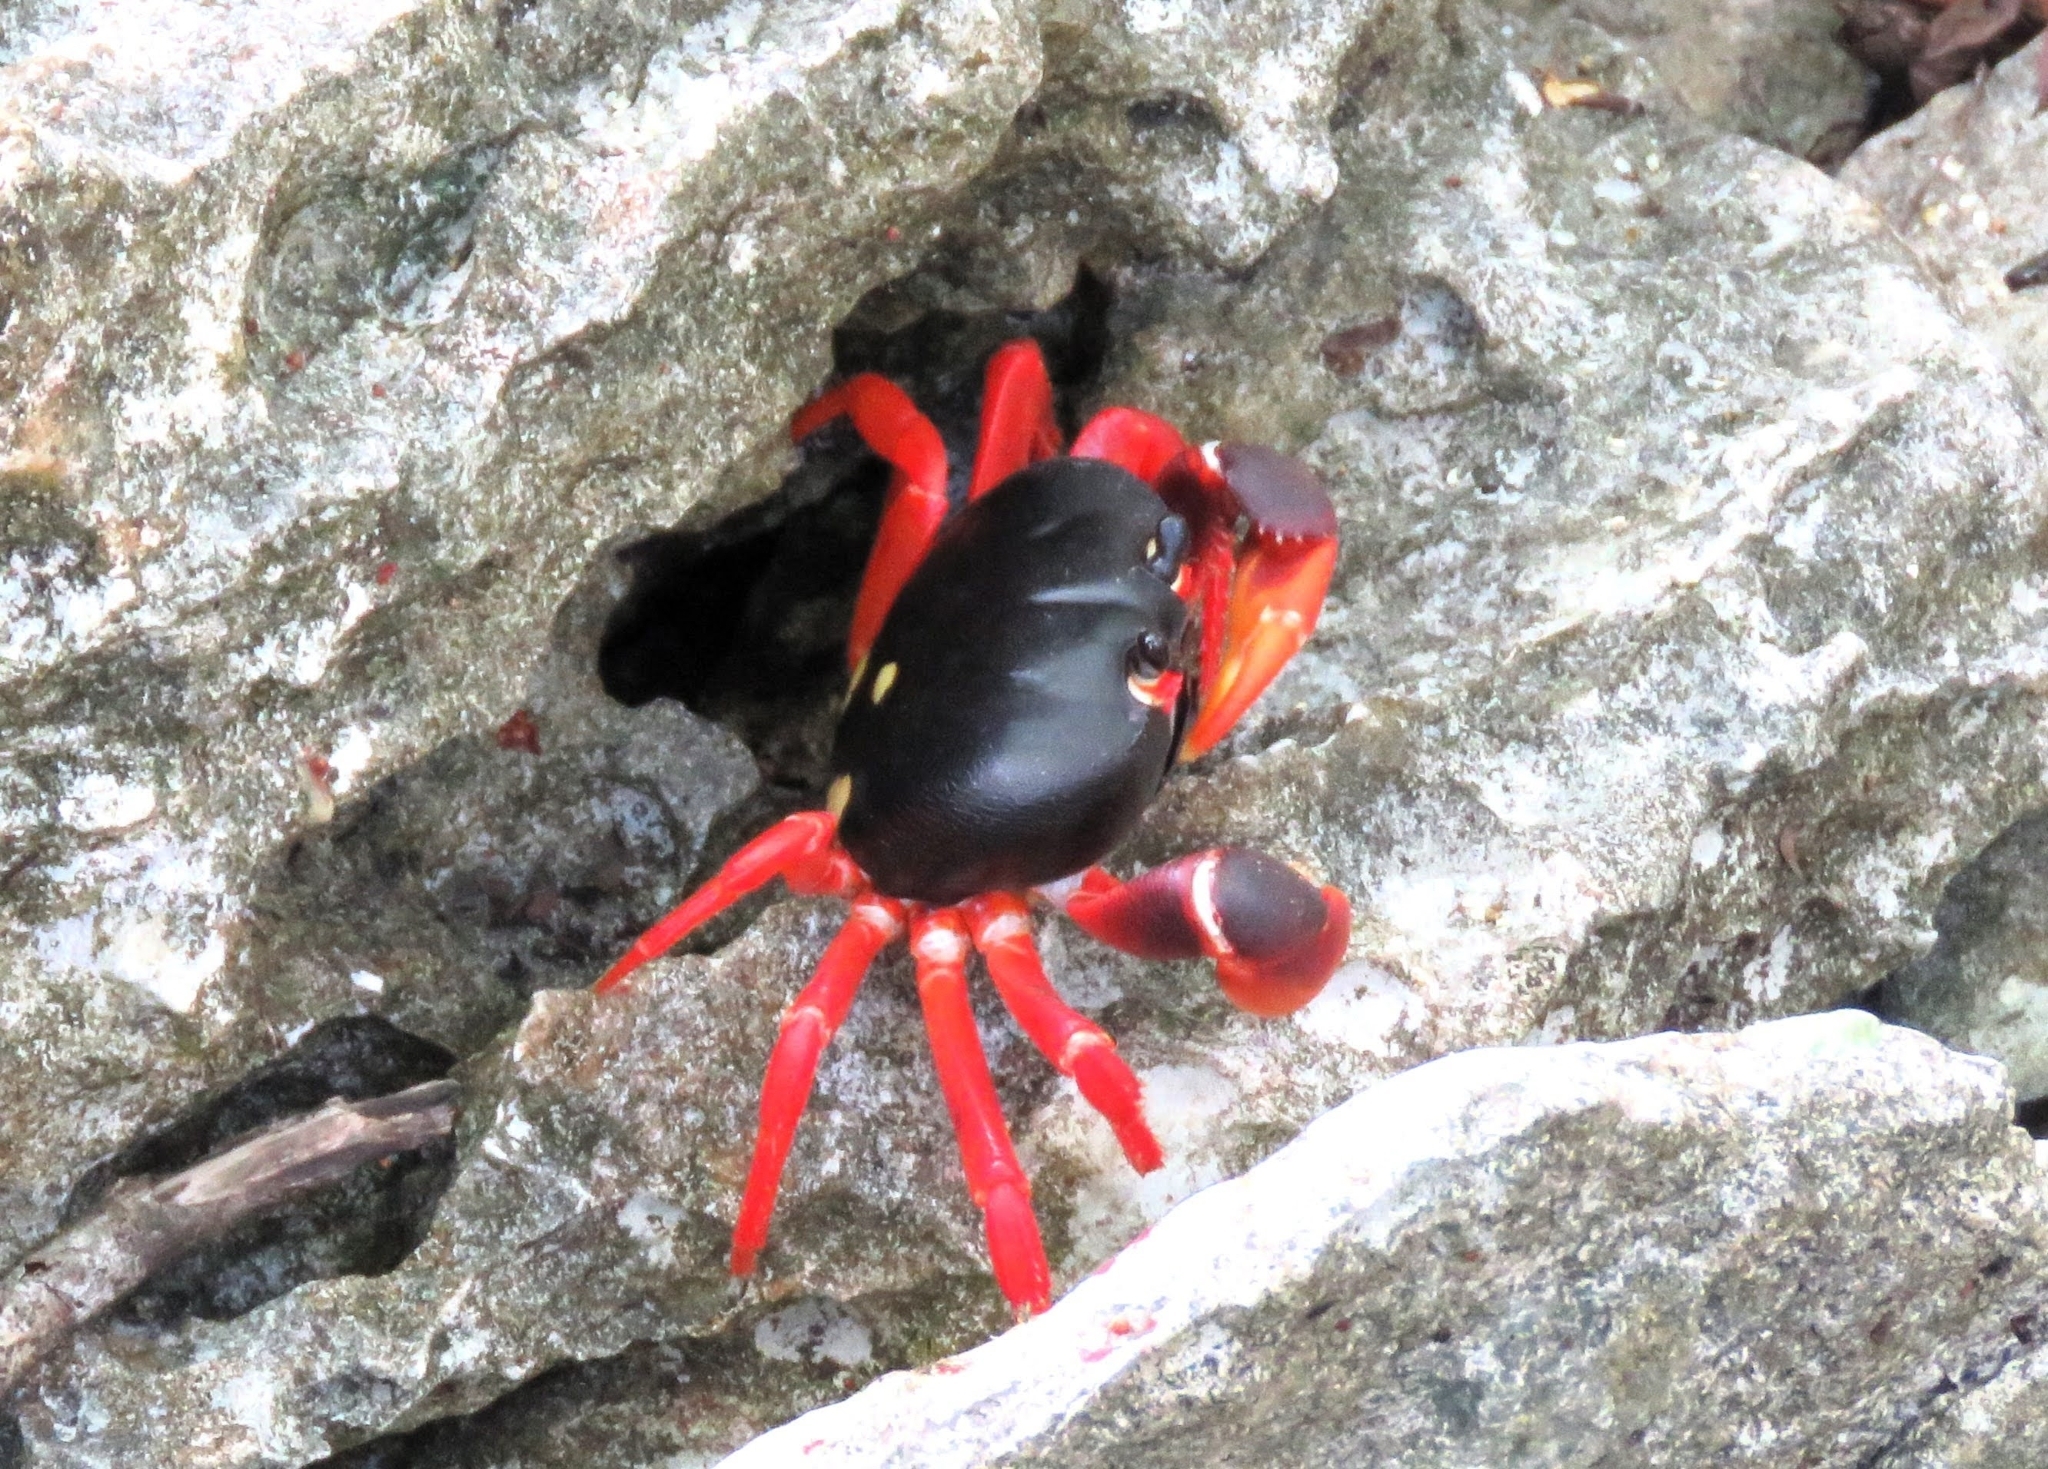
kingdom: Animalia
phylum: Arthropoda
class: Malacostraca
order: Decapoda
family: Gecarcinidae
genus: Gecarcinus
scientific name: Gecarcinus ruricola
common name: Black land crab
